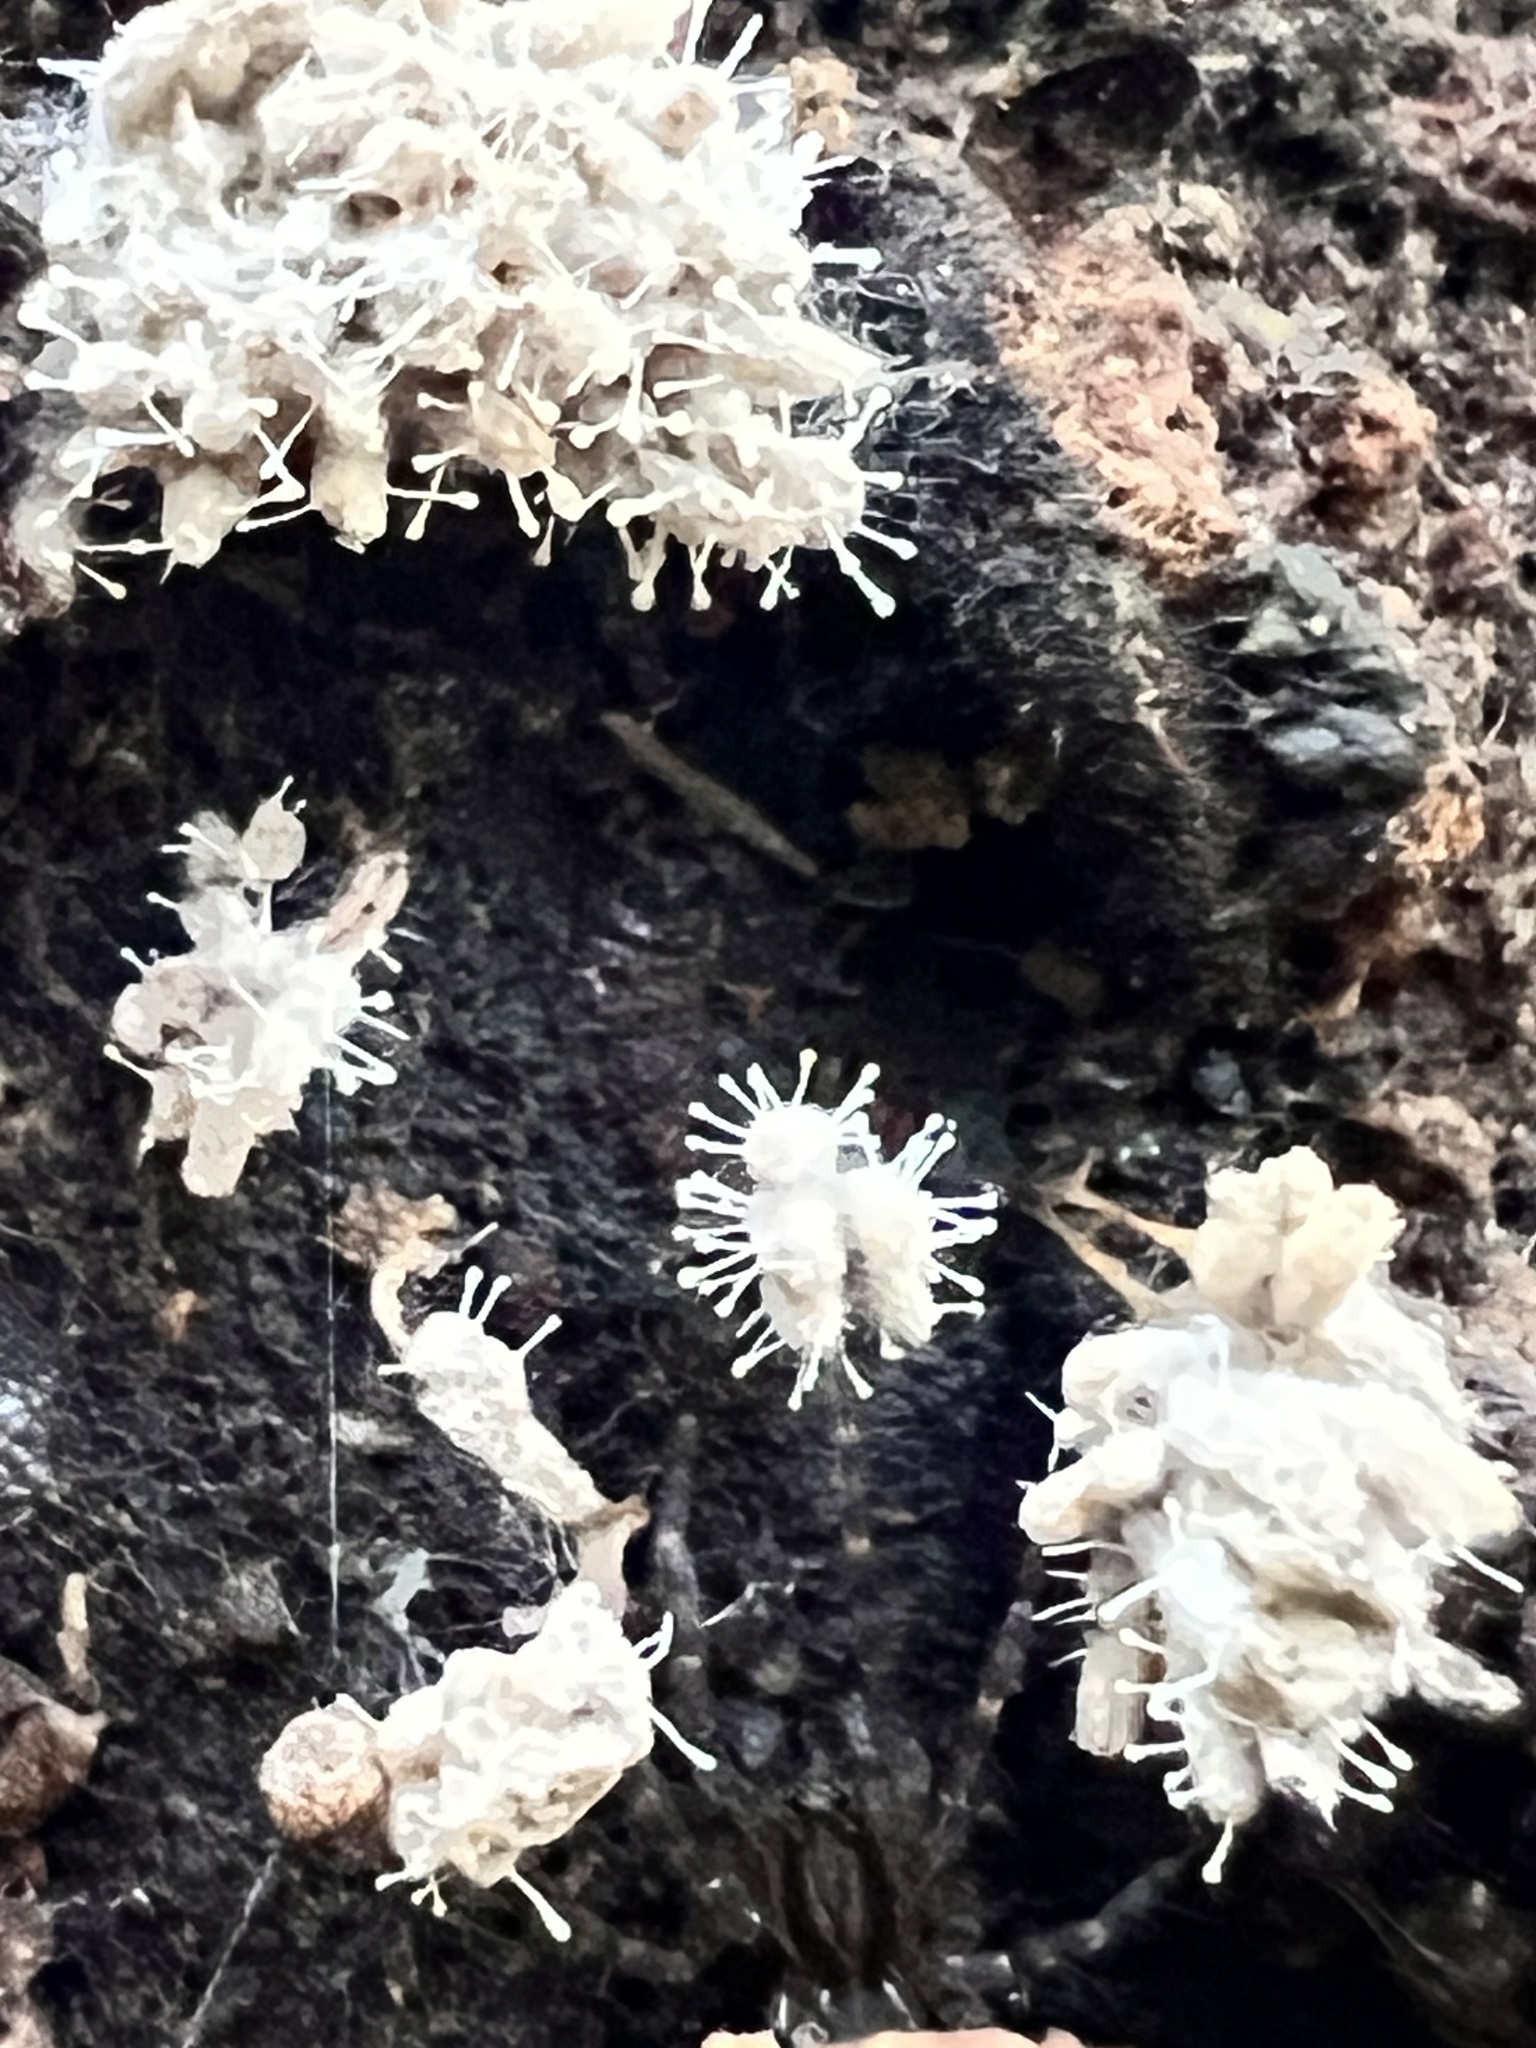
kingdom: Fungi
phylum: Ascomycota
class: Sordariomycetes
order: Hypocreales
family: Ophiocordycipitaceae
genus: Polycephalomyces
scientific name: Polycephalomyces tomentosus
